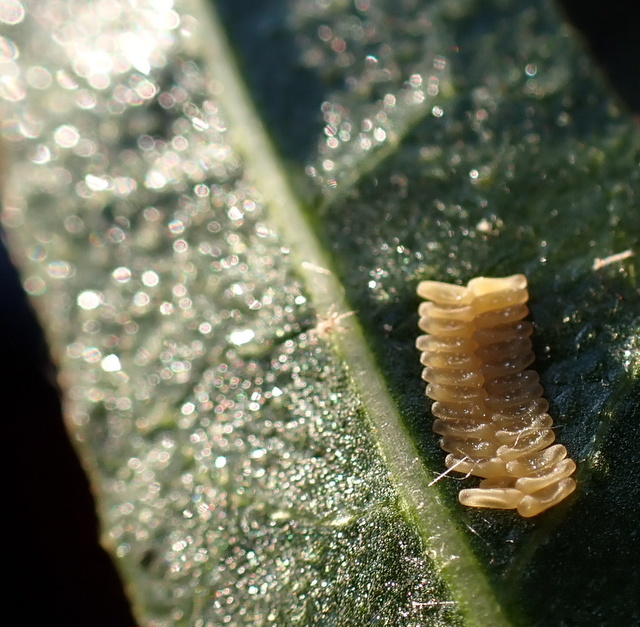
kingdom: Animalia
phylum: Arthropoda
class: Insecta
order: Coleoptera
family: Chrysomelidae
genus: Agasicles
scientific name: Agasicles hygrophila
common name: Alligatorweed flea beetle
